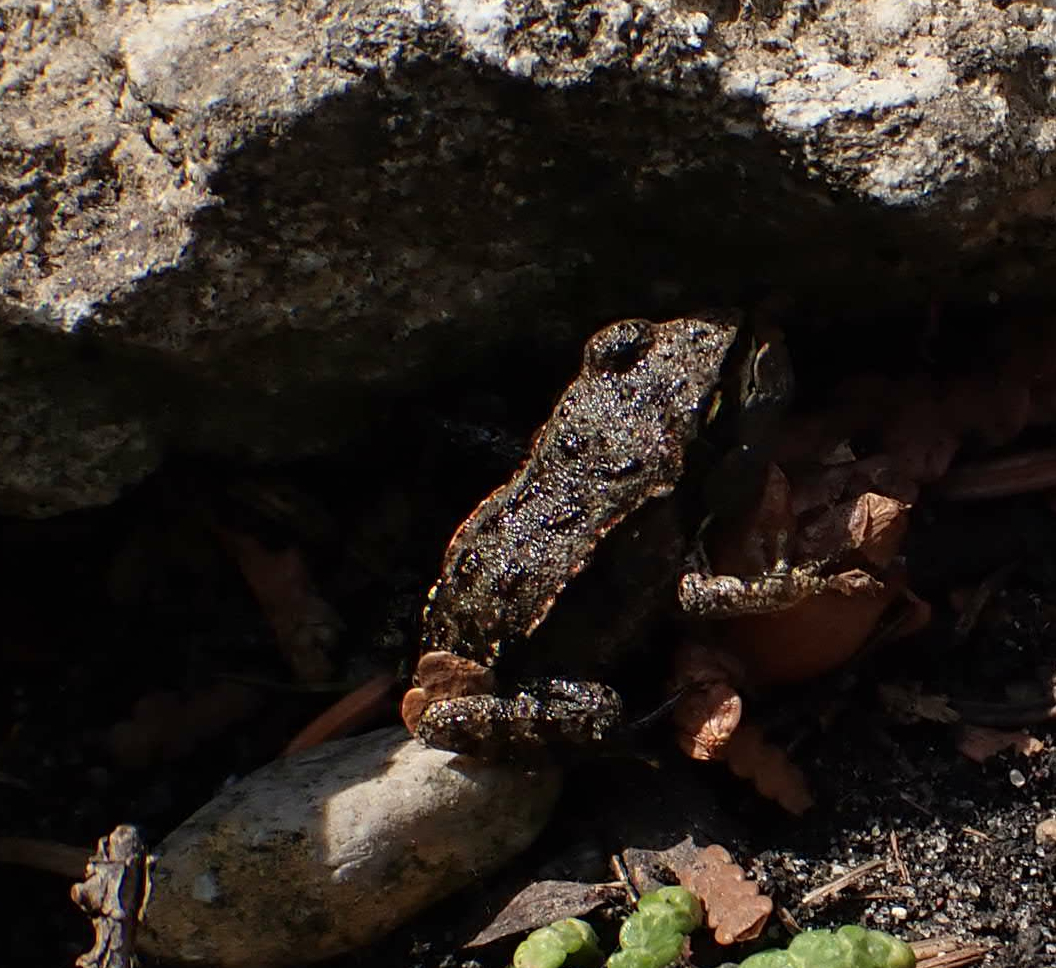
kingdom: Animalia
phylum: Chordata
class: Amphibia
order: Anura
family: Ranidae
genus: Lithobates
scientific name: Lithobates sylvaticus
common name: Wood frog
